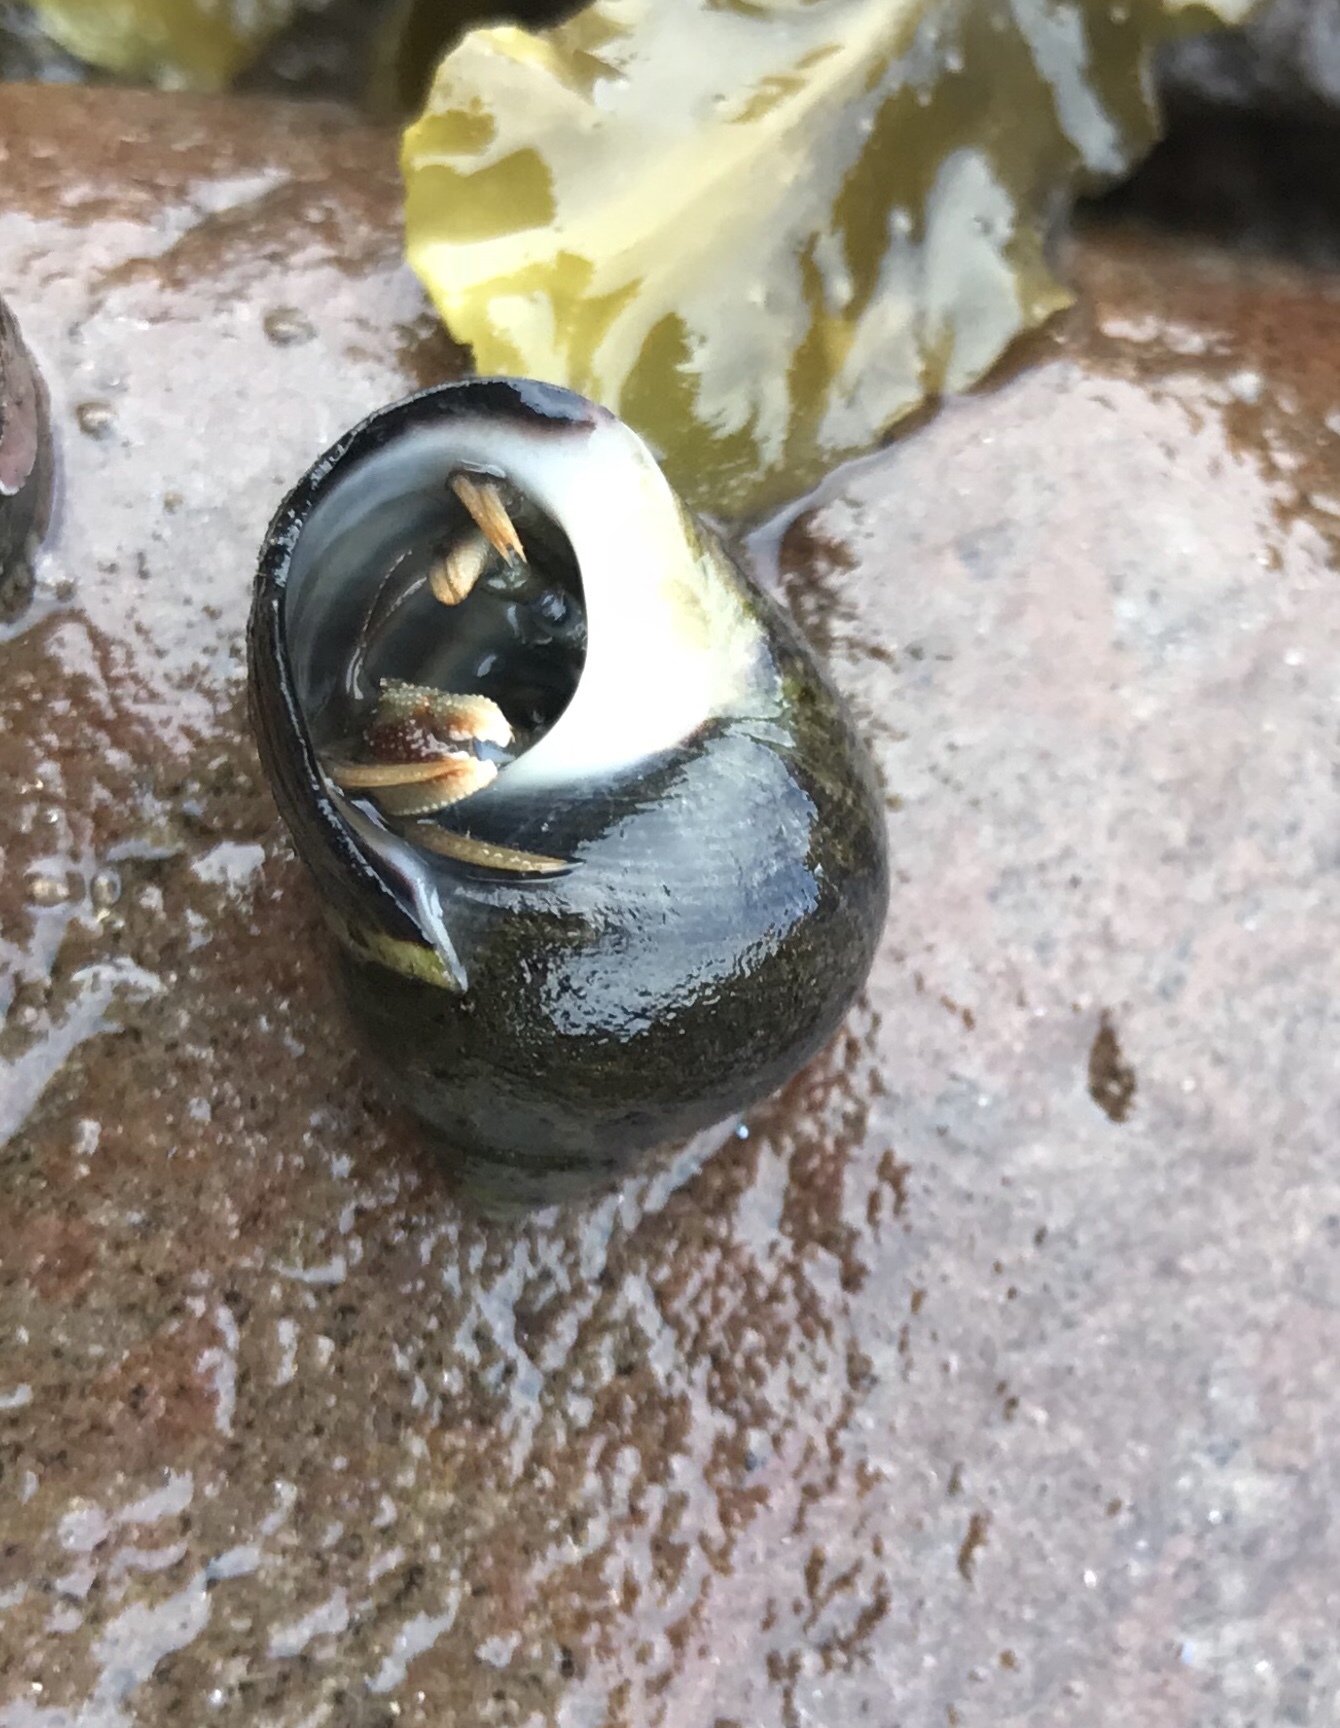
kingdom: Animalia
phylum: Arthropoda
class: Malacostraca
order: Decapoda
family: Paguridae
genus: Pagurus
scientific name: Pagurus bernhardus
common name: Hermit crab
